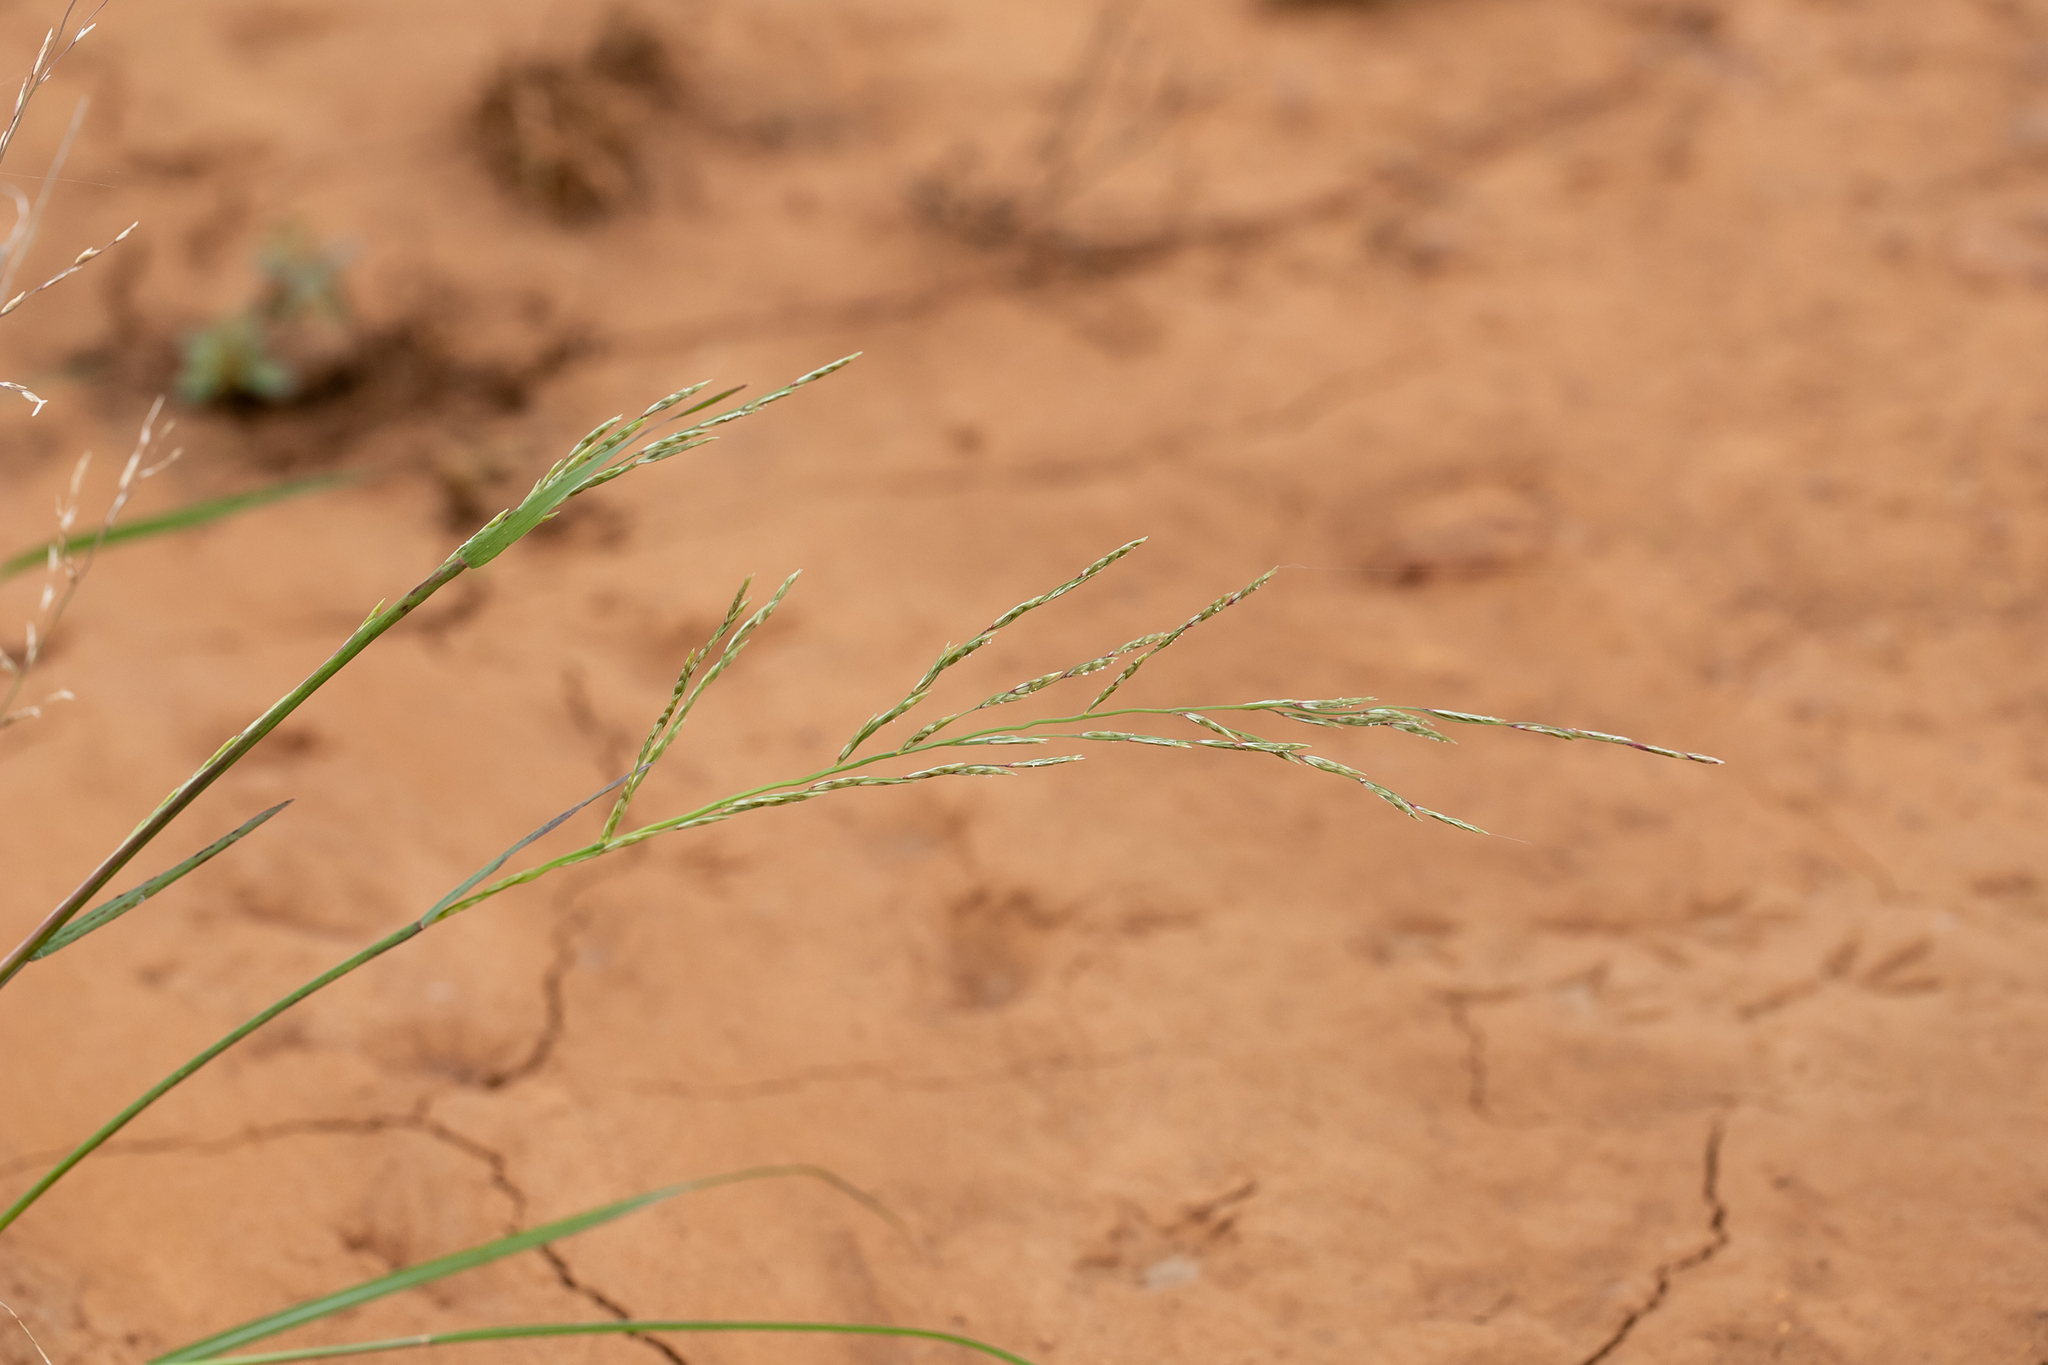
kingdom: Plantae
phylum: Tracheophyta
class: Liliopsida
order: Poales
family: Poaceae
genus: Diplachne
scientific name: Diplachne fusca
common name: Brown beetle grass
